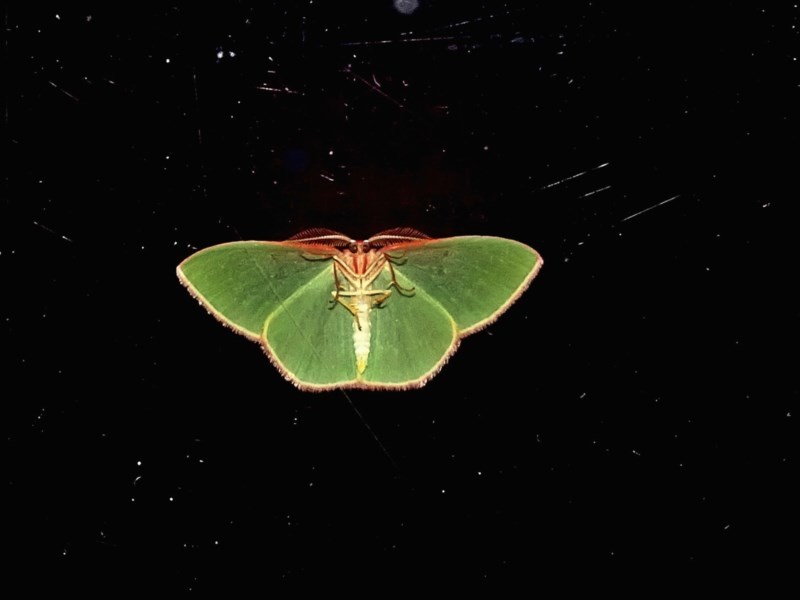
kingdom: Animalia
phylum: Arthropoda
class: Insecta
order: Lepidoptera
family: Geometridae
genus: Chlorocoma
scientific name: Chlorocoma dichloraria
